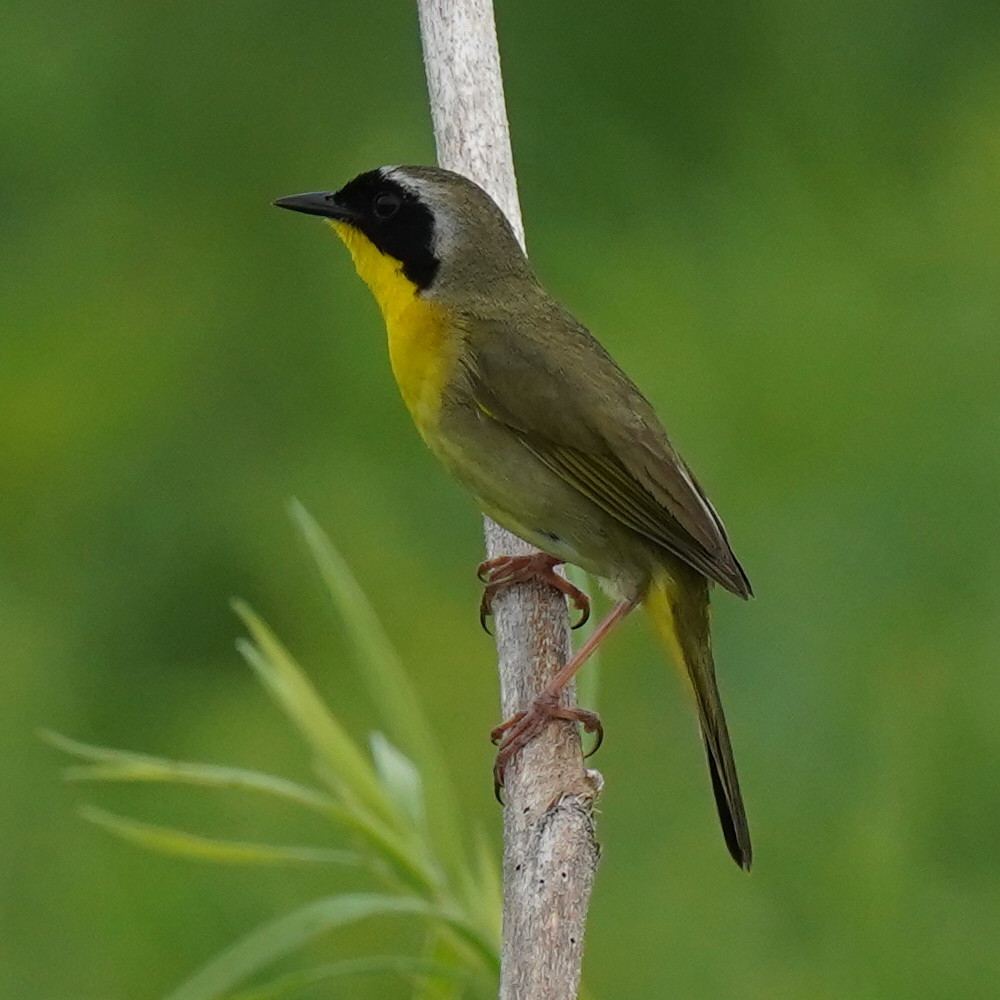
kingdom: Animalia
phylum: Chordata
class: Aves
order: Passeriformes
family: Parulidae
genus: Geothlypis
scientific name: Geothlypis trichas
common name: Common yellowthroat
